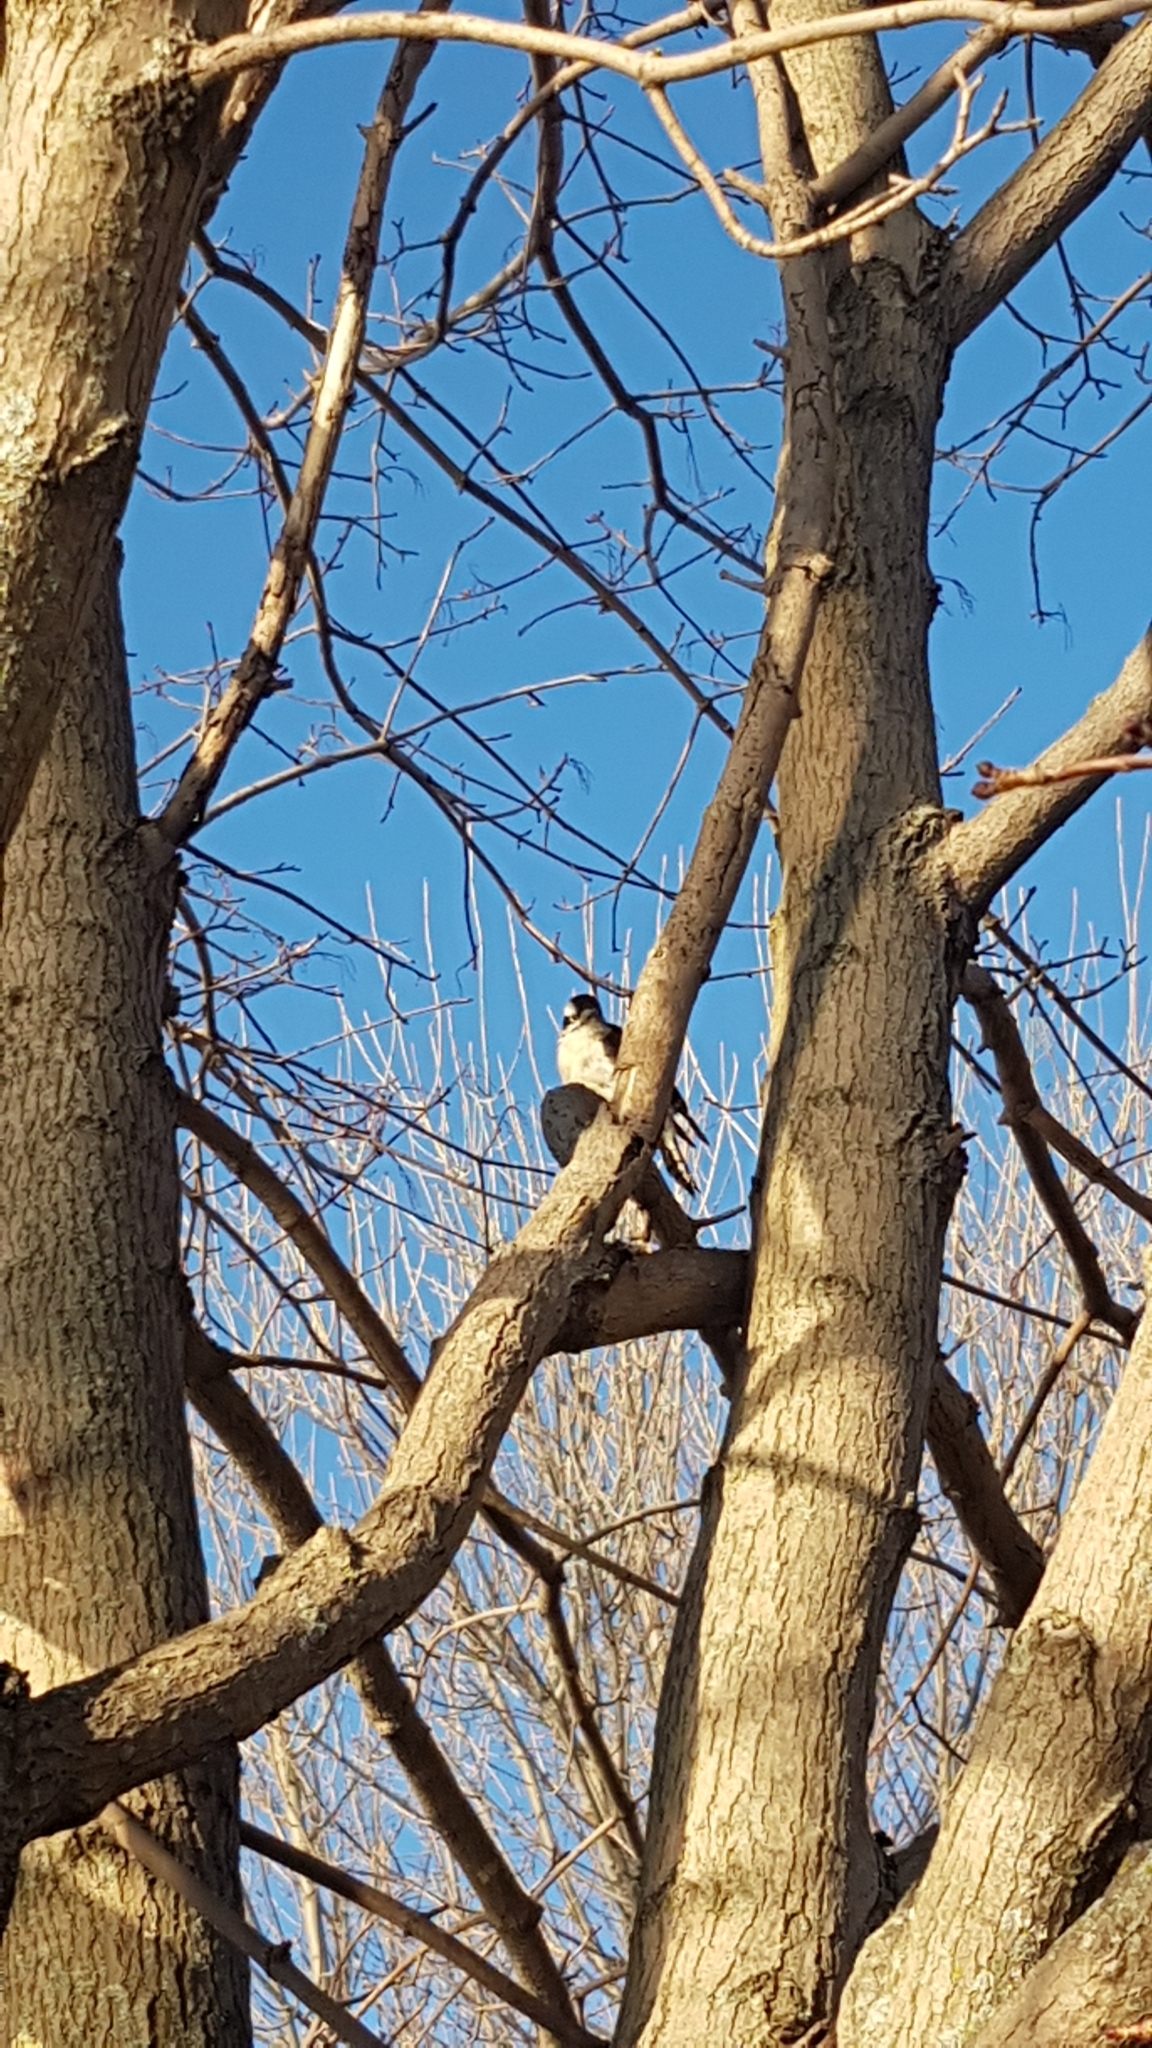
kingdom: Animalia
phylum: Chordata
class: Aves
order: Piciformes
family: Picidae
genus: Dryobates
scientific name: Dryobates pubescens
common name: Downy woodpecker
